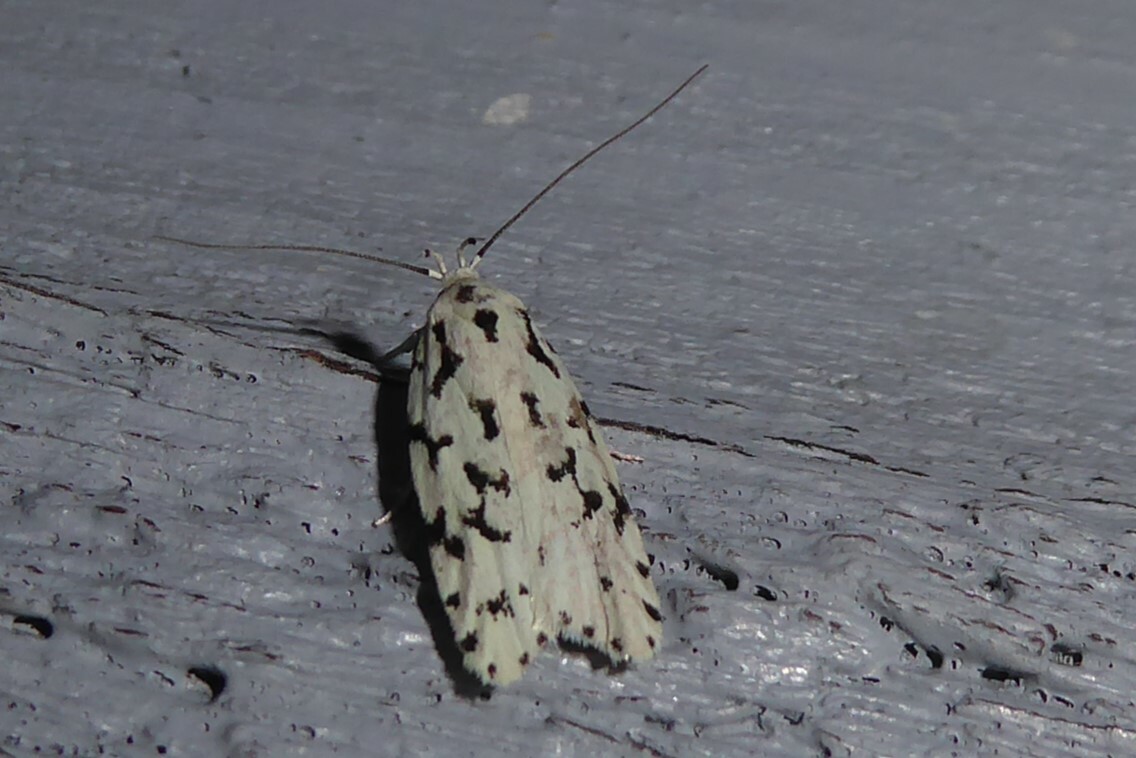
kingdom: Animalia
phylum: Arthropoda
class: Insecta
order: Lepidoptera
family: Oecophoridae
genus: Izatha
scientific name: Izatha huttoni
